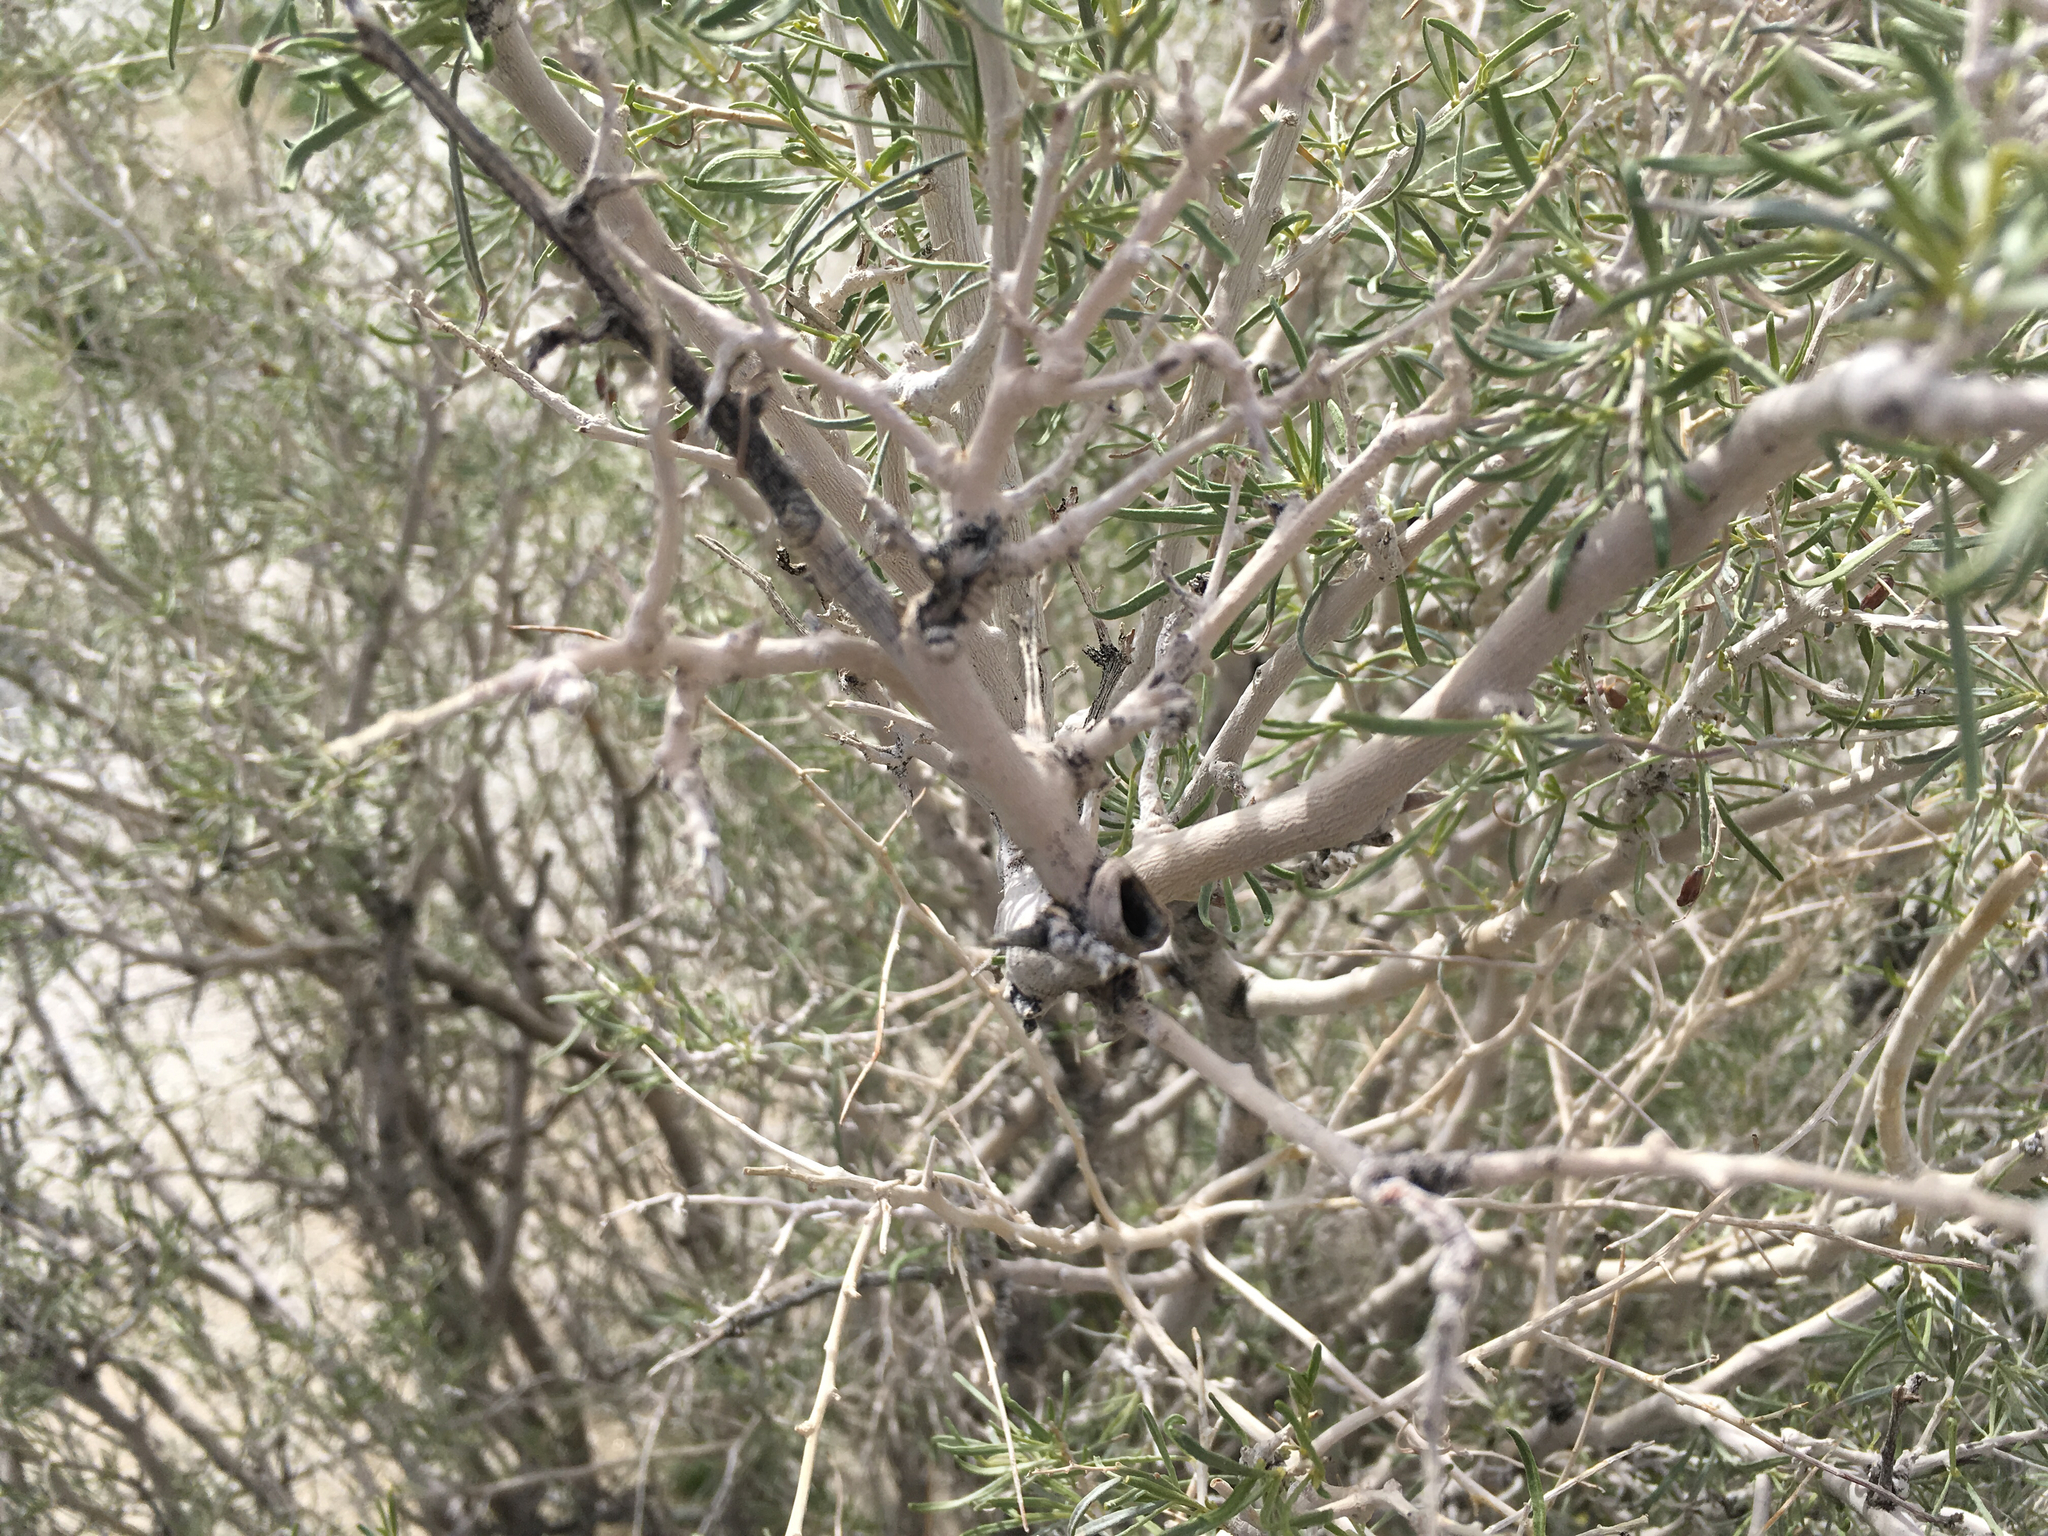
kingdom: Plantae
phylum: Tracheophyta
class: Magnoliopsida
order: Fabales
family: Fabaceae
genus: Psorothamnus
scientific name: Psorothamnus schottii
